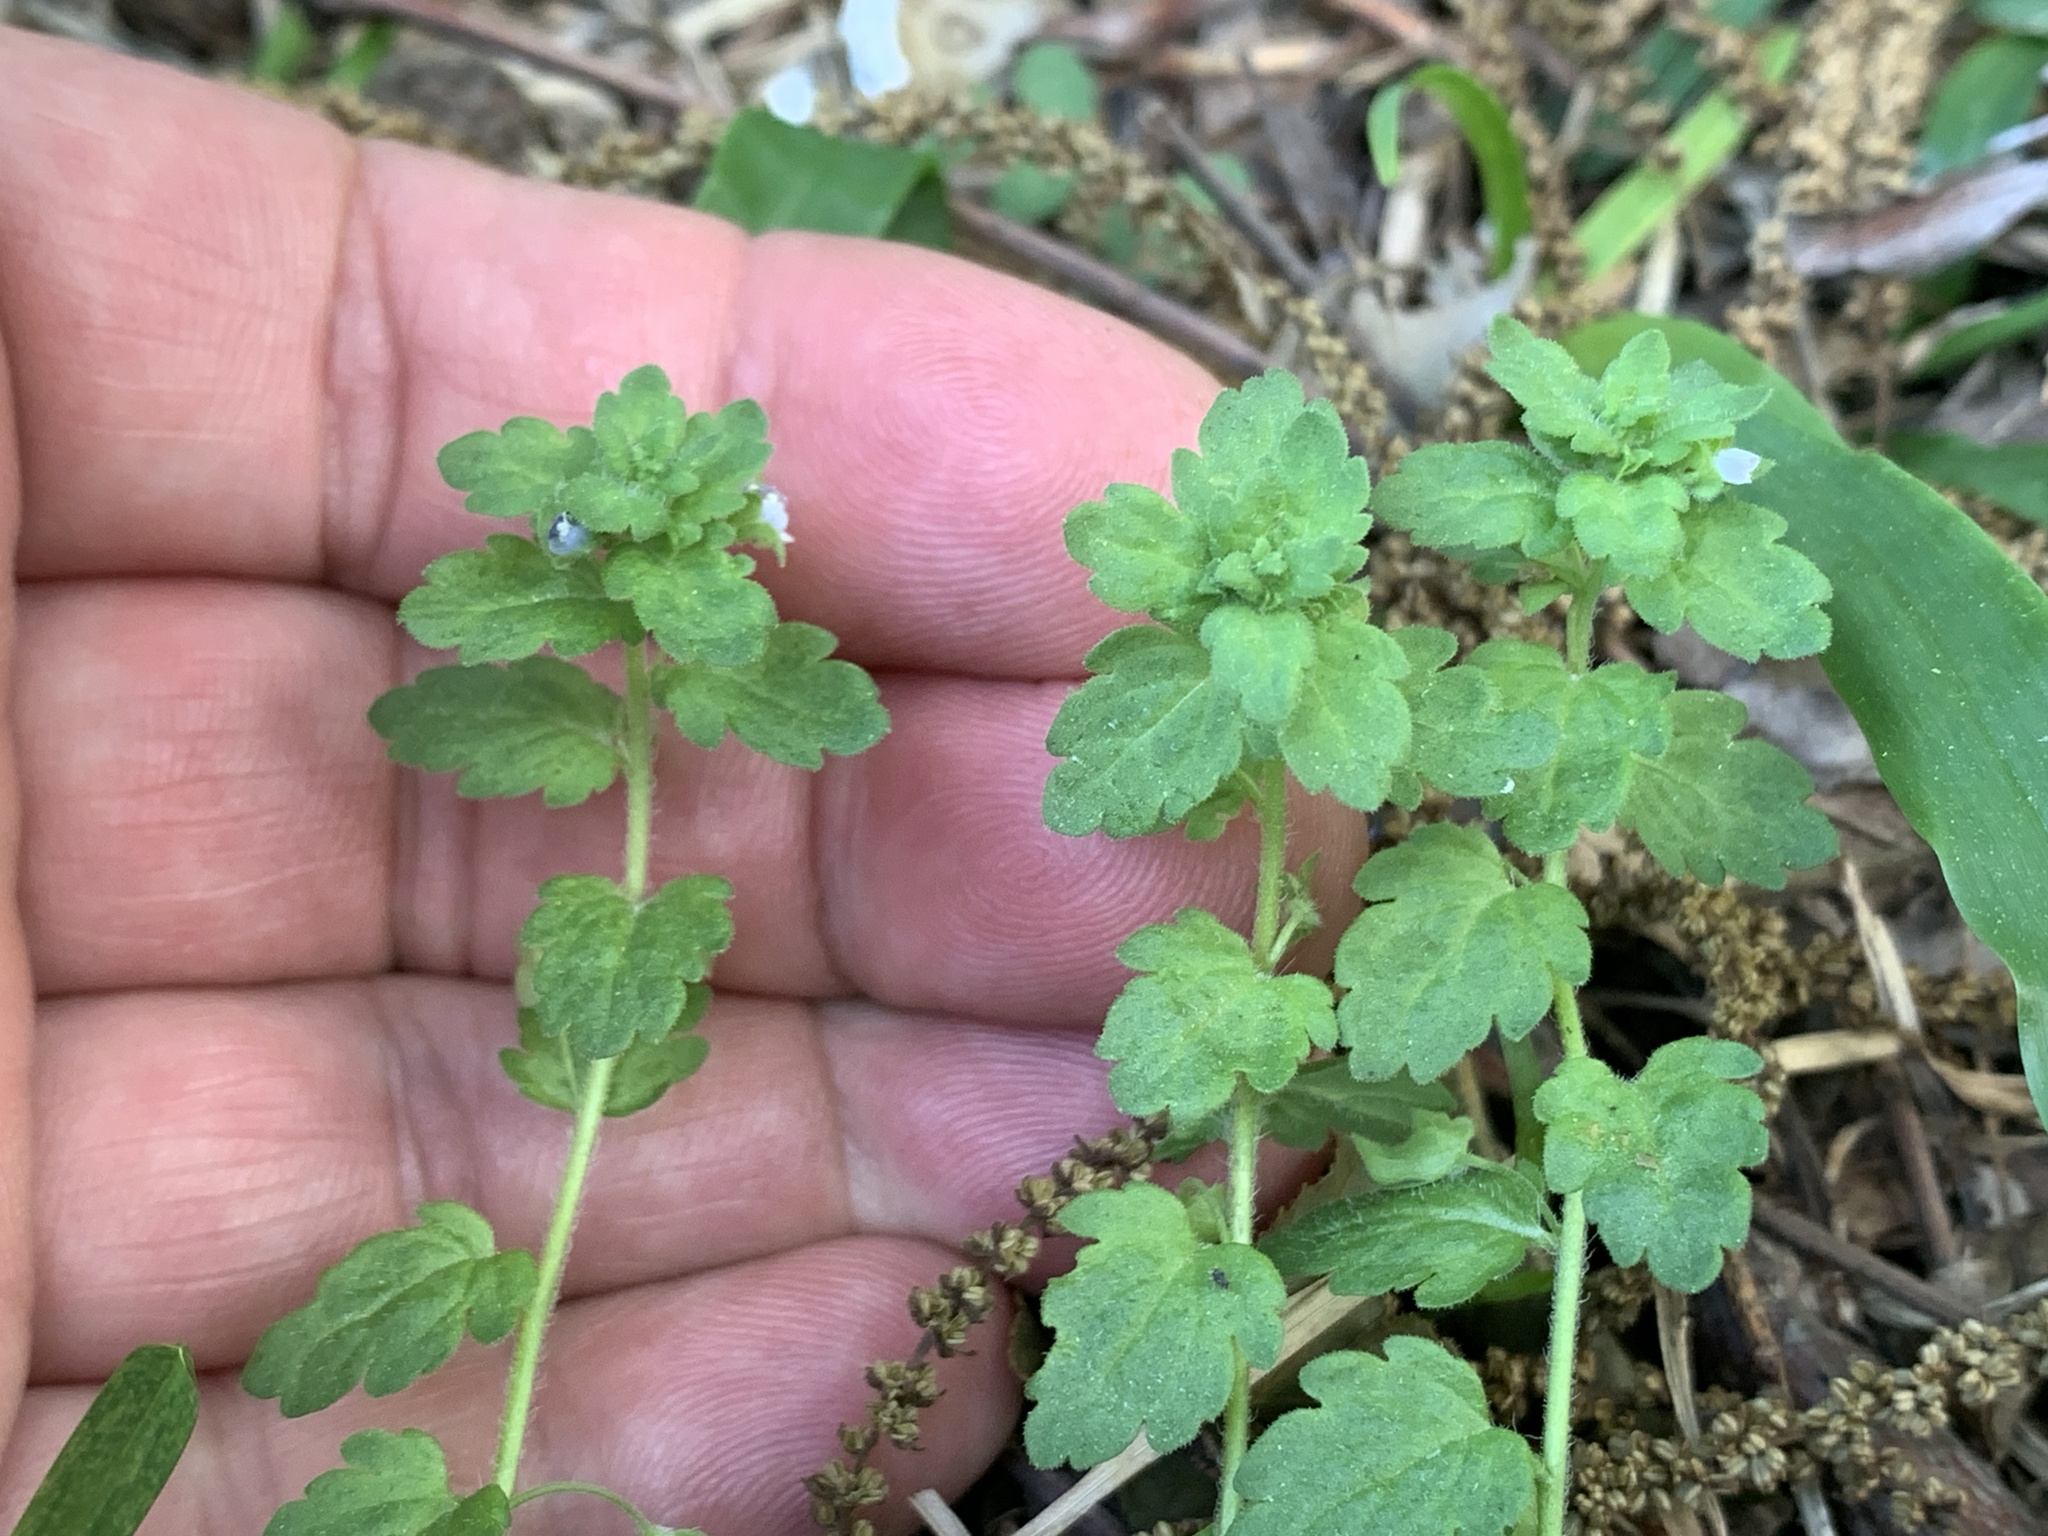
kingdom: Plantae
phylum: Tracheophyta
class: Magnoliopsida
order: Lamiales
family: Plantaginaceae
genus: Veronica
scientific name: Veronica polita
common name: Grey field-speedwell
